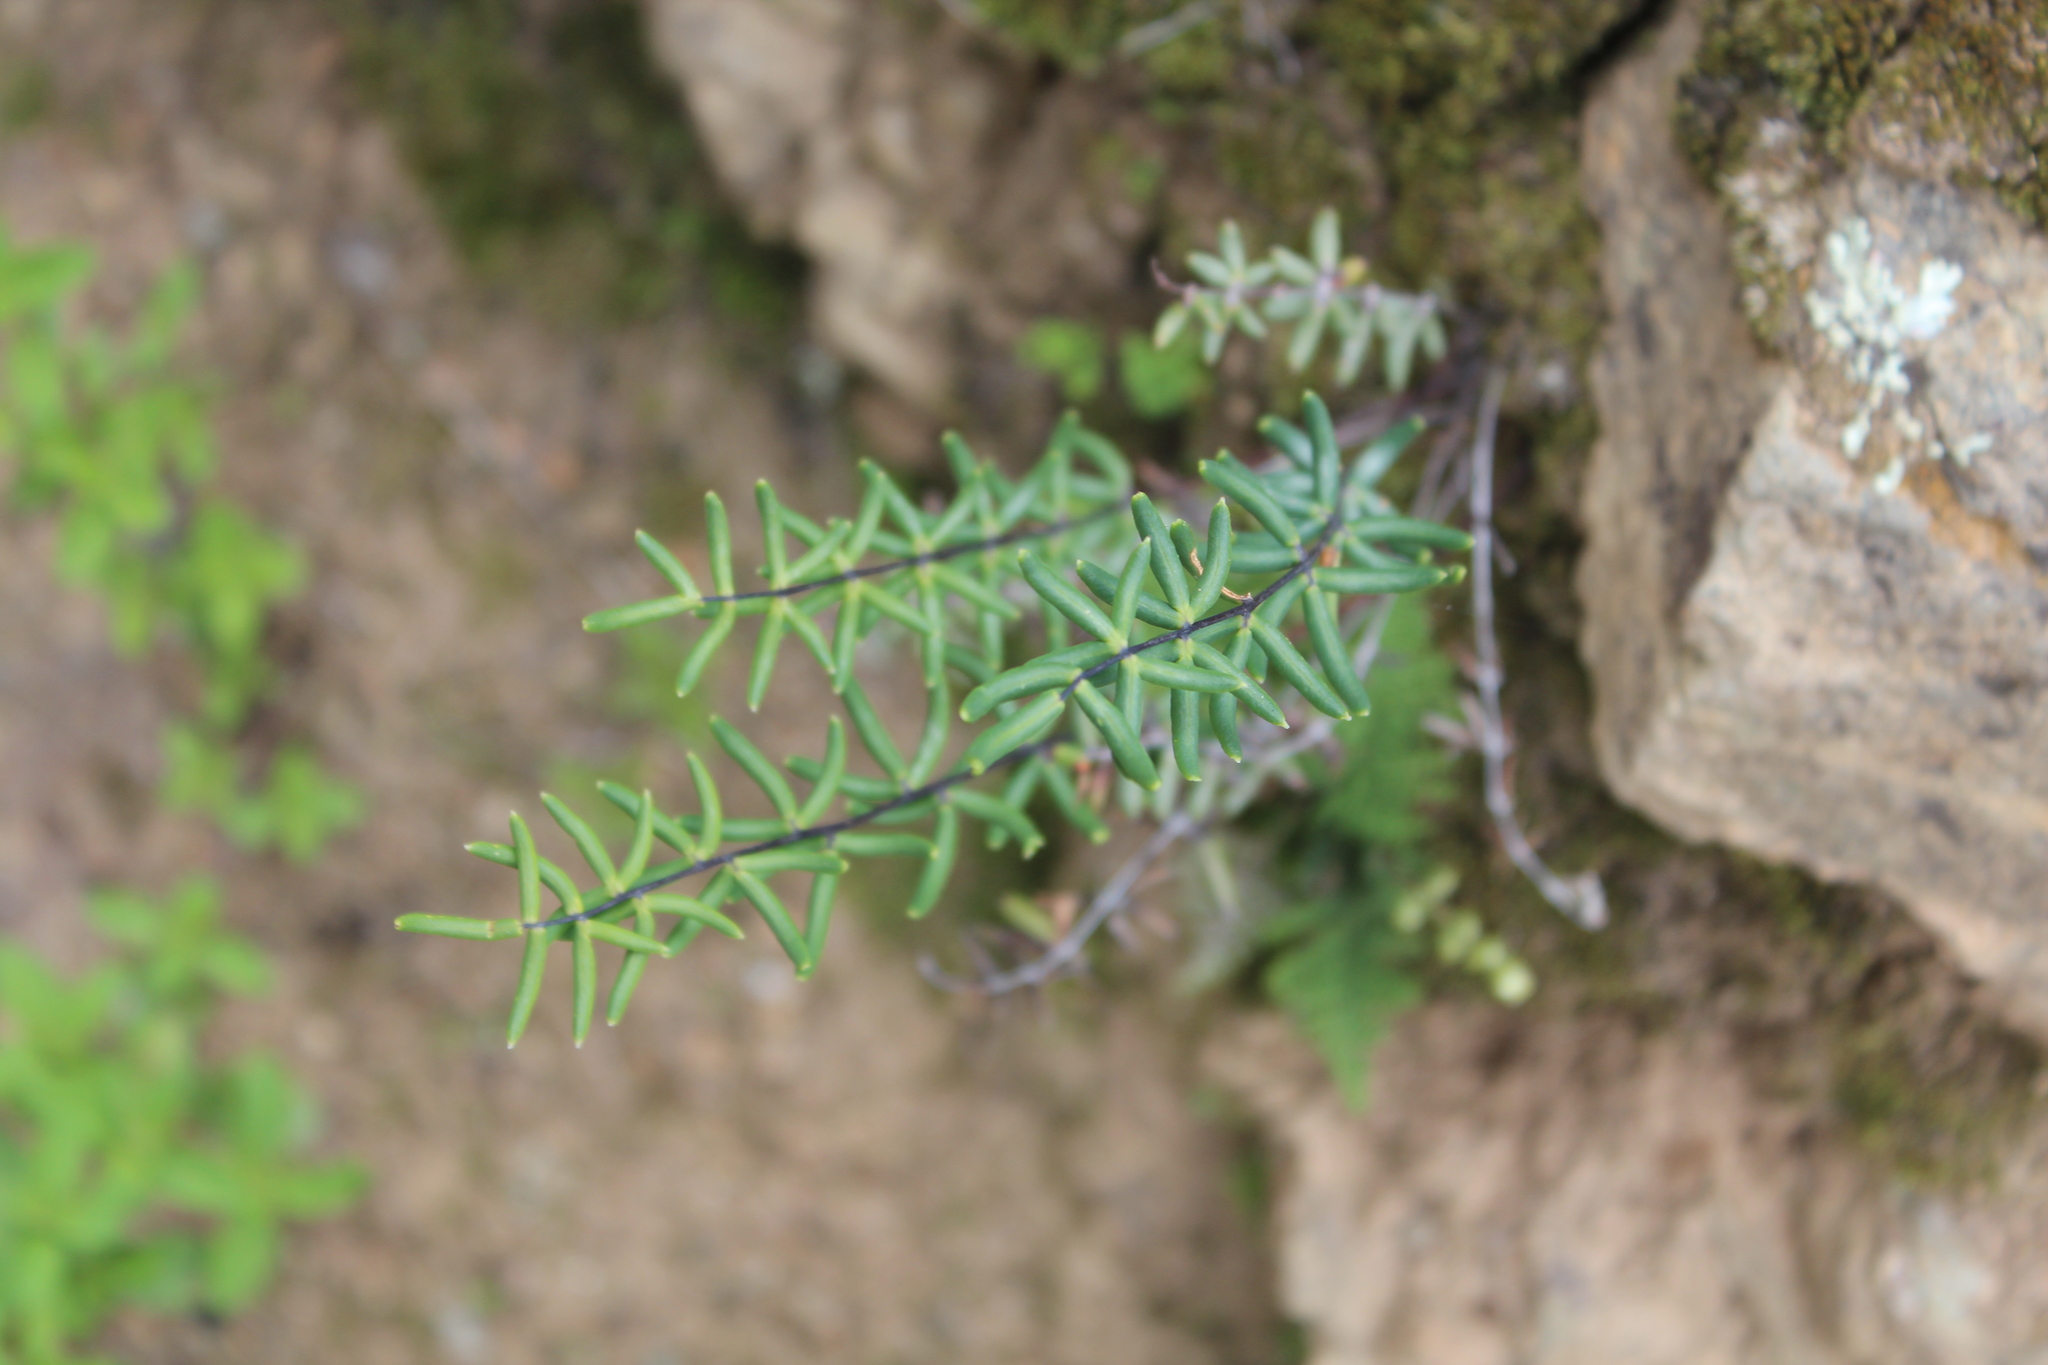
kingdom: Plantae
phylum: Tracheophyta
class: Polypodiopsida
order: Polypodiales
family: Pteridaceae
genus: Pellaea
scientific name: Pellaea ternifolia
